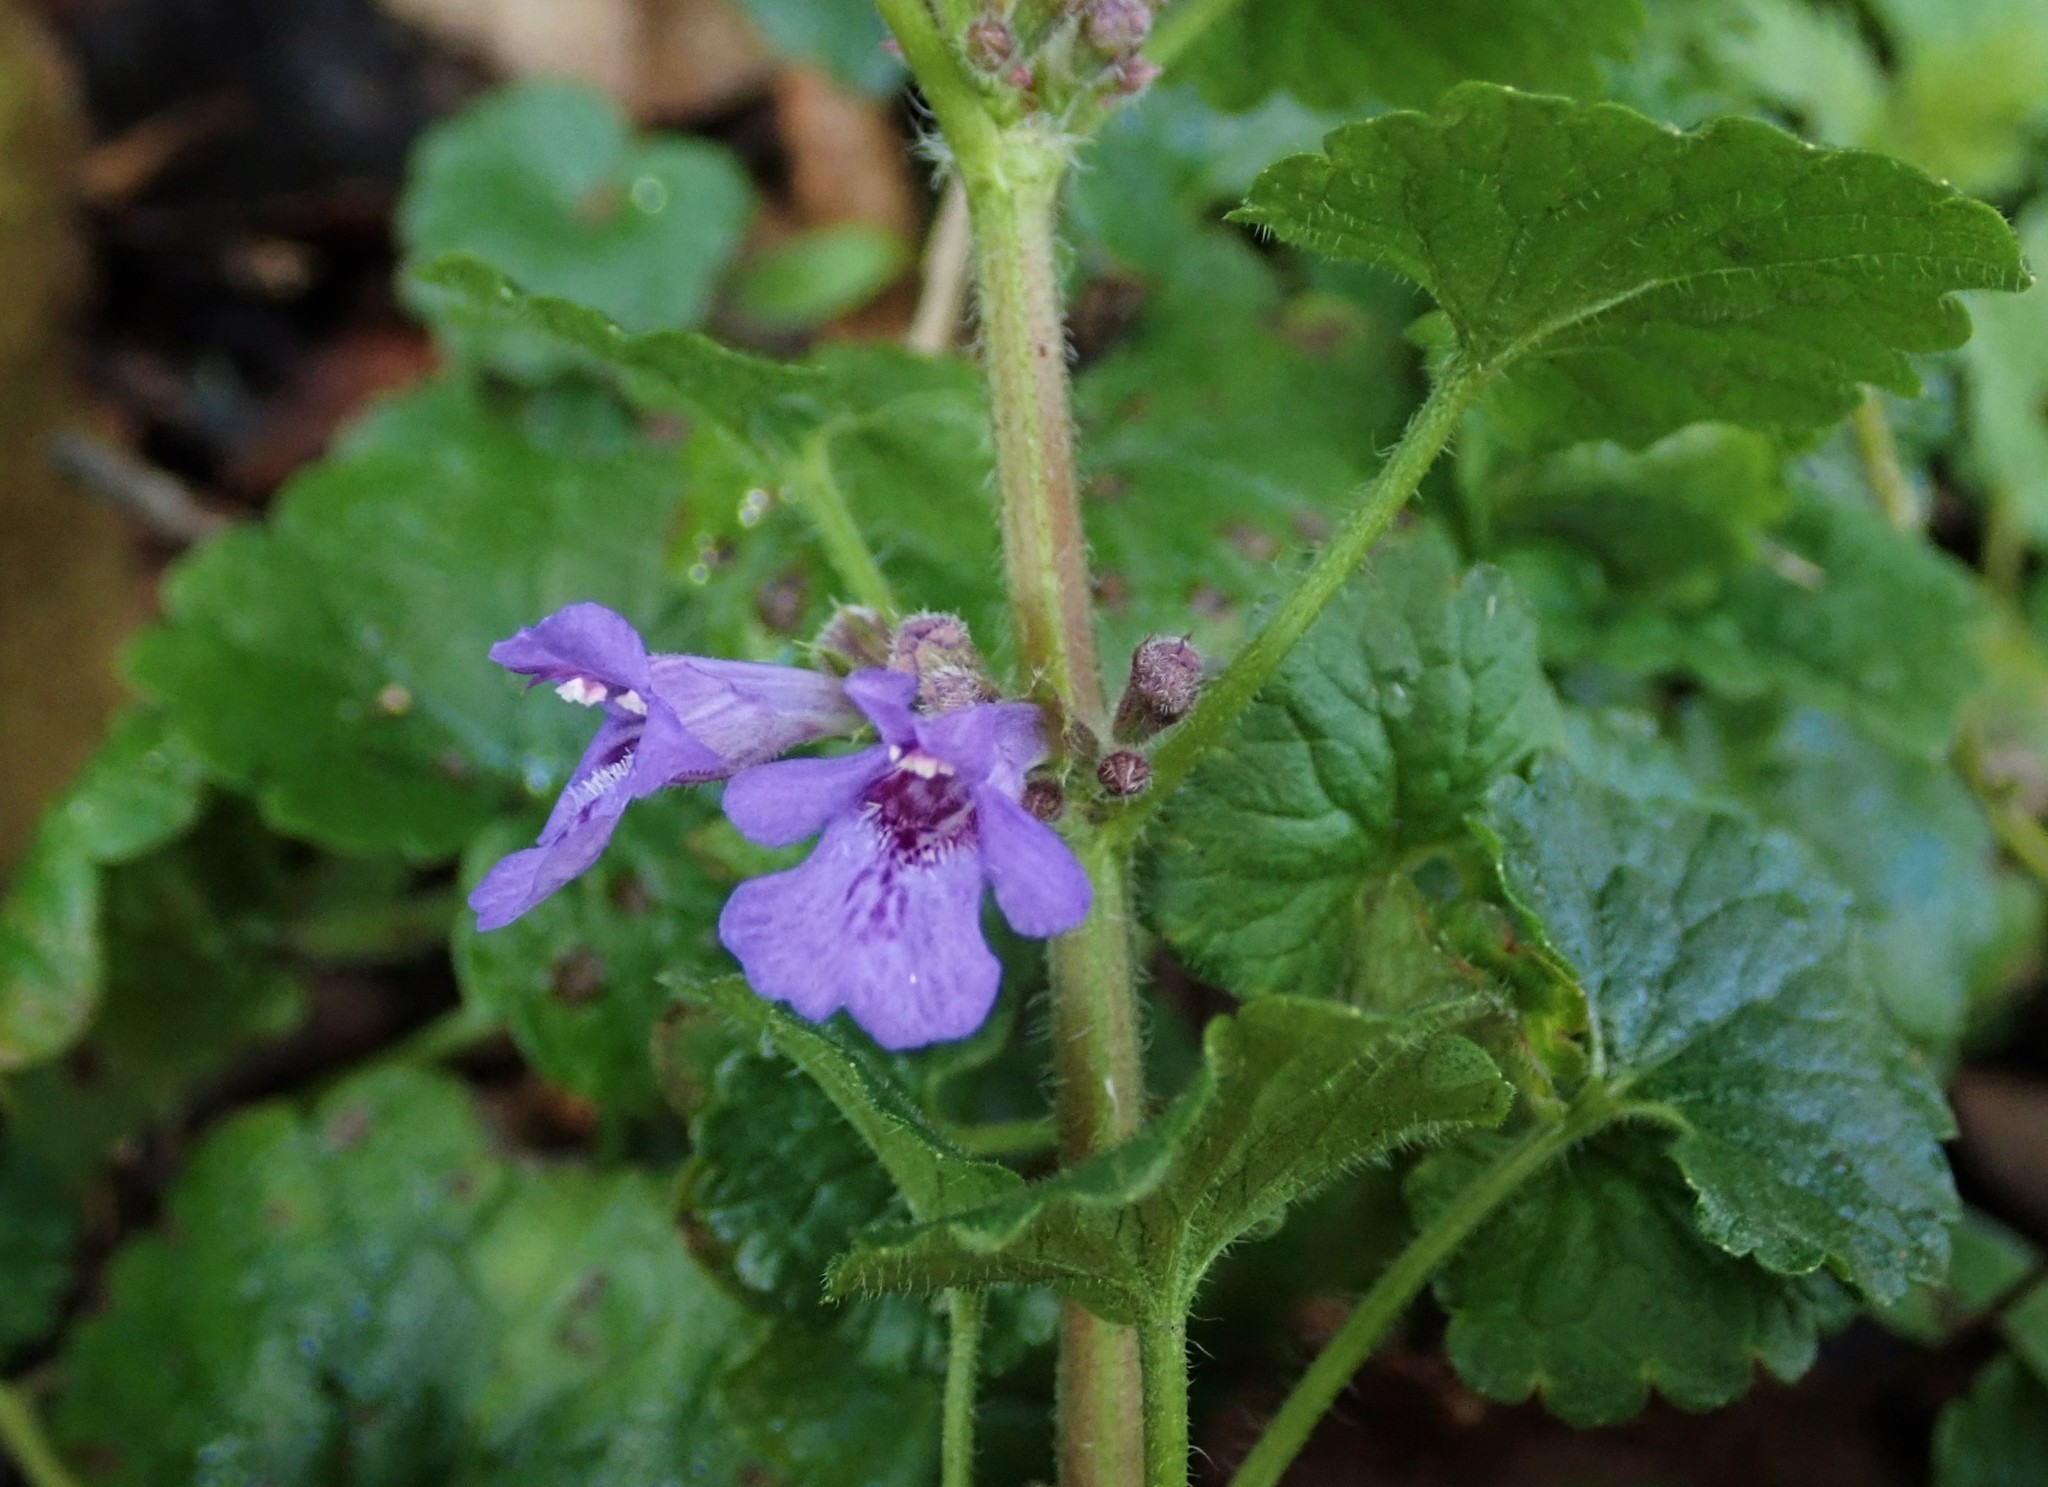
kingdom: Plantae
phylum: Tracheophyta
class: Magnoliopsida
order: Lamiales
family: Lamiaceae
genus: Glechoma
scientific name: Glechoma hederacea
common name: Ground ivy
